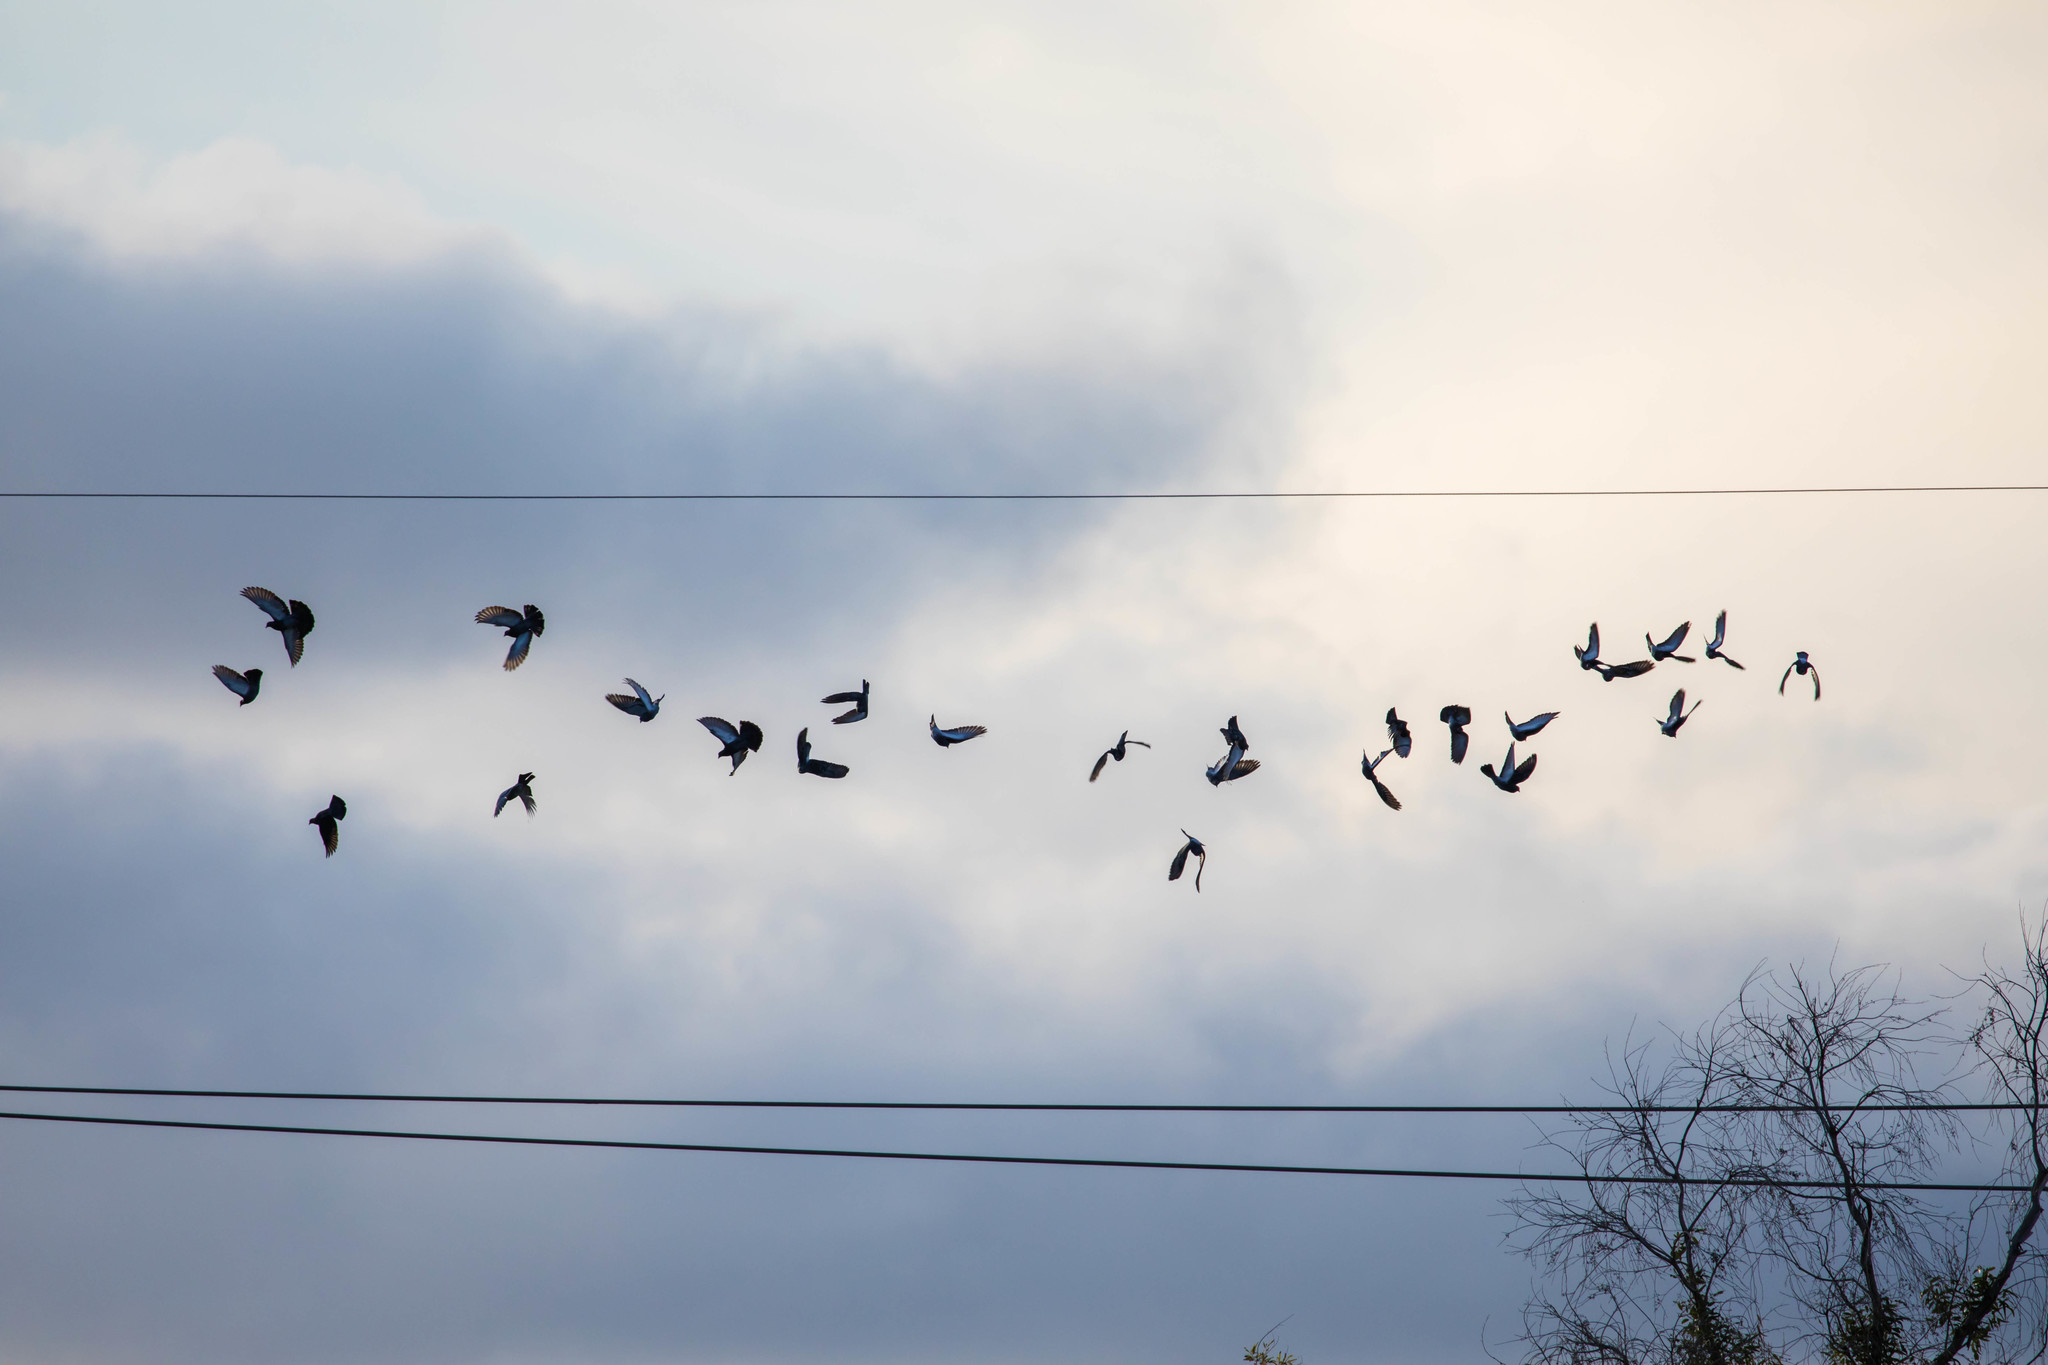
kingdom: Animalia
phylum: Chordata
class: Aves
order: Columbiformes
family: Columbidae
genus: Columba
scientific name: Columba livia
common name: Rock pigeon
